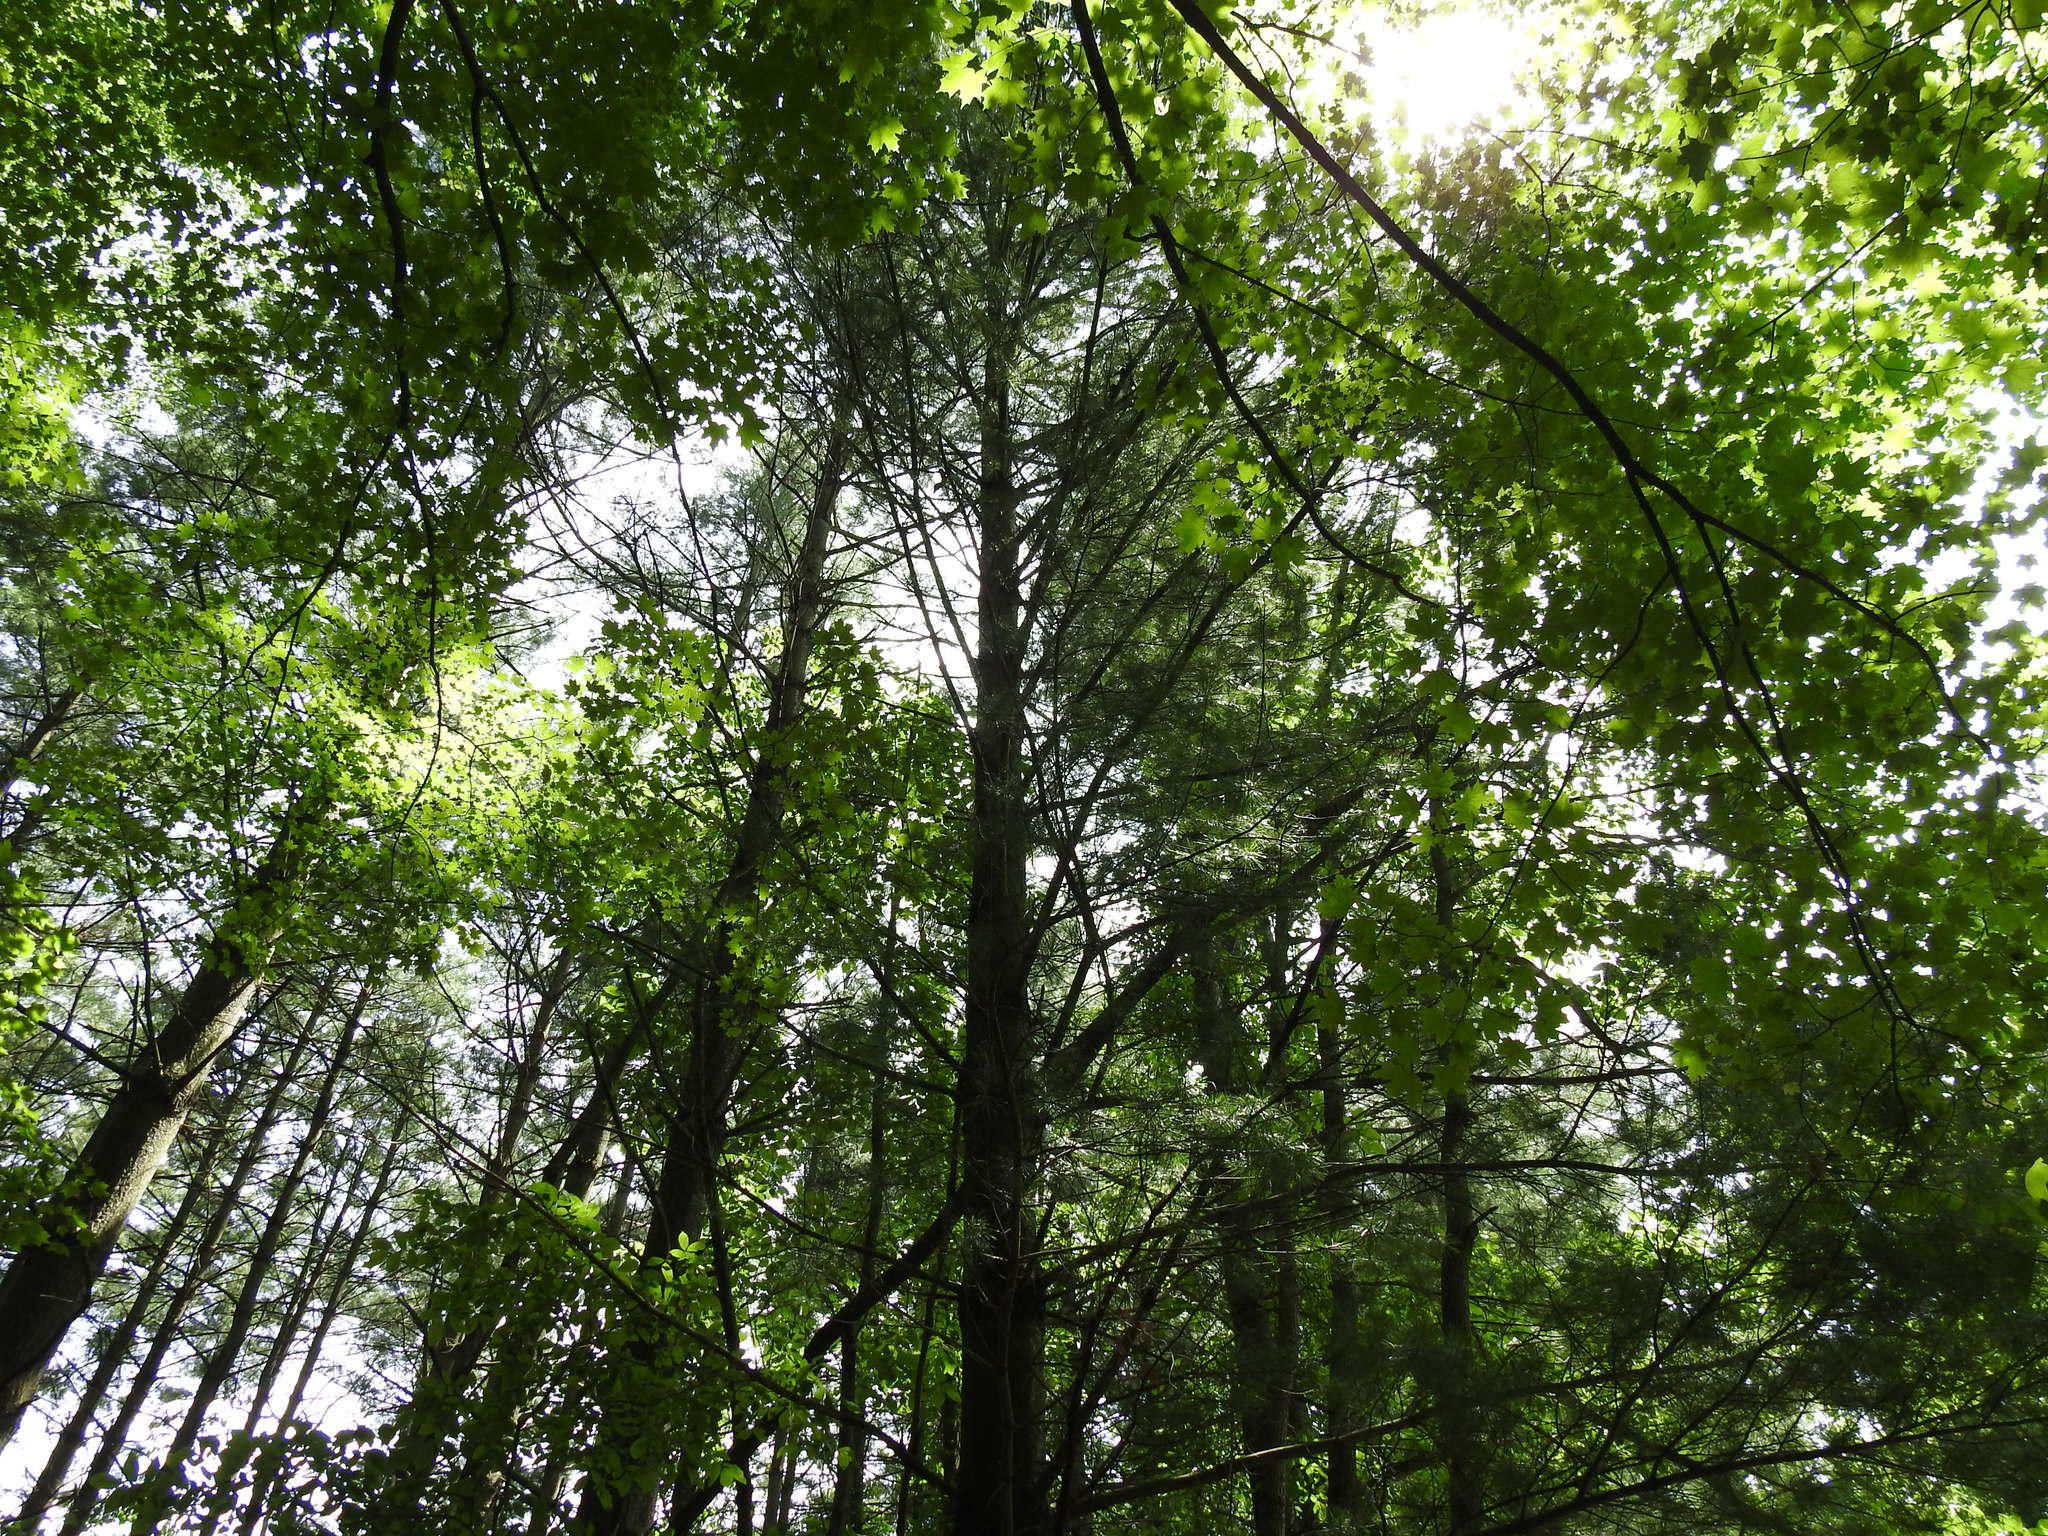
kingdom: Plantae
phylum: Tracheophyta
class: Pinopsida
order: Pinales
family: Pinaceae
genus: Pinus
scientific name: Pinus strobus
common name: Weymouth pine
